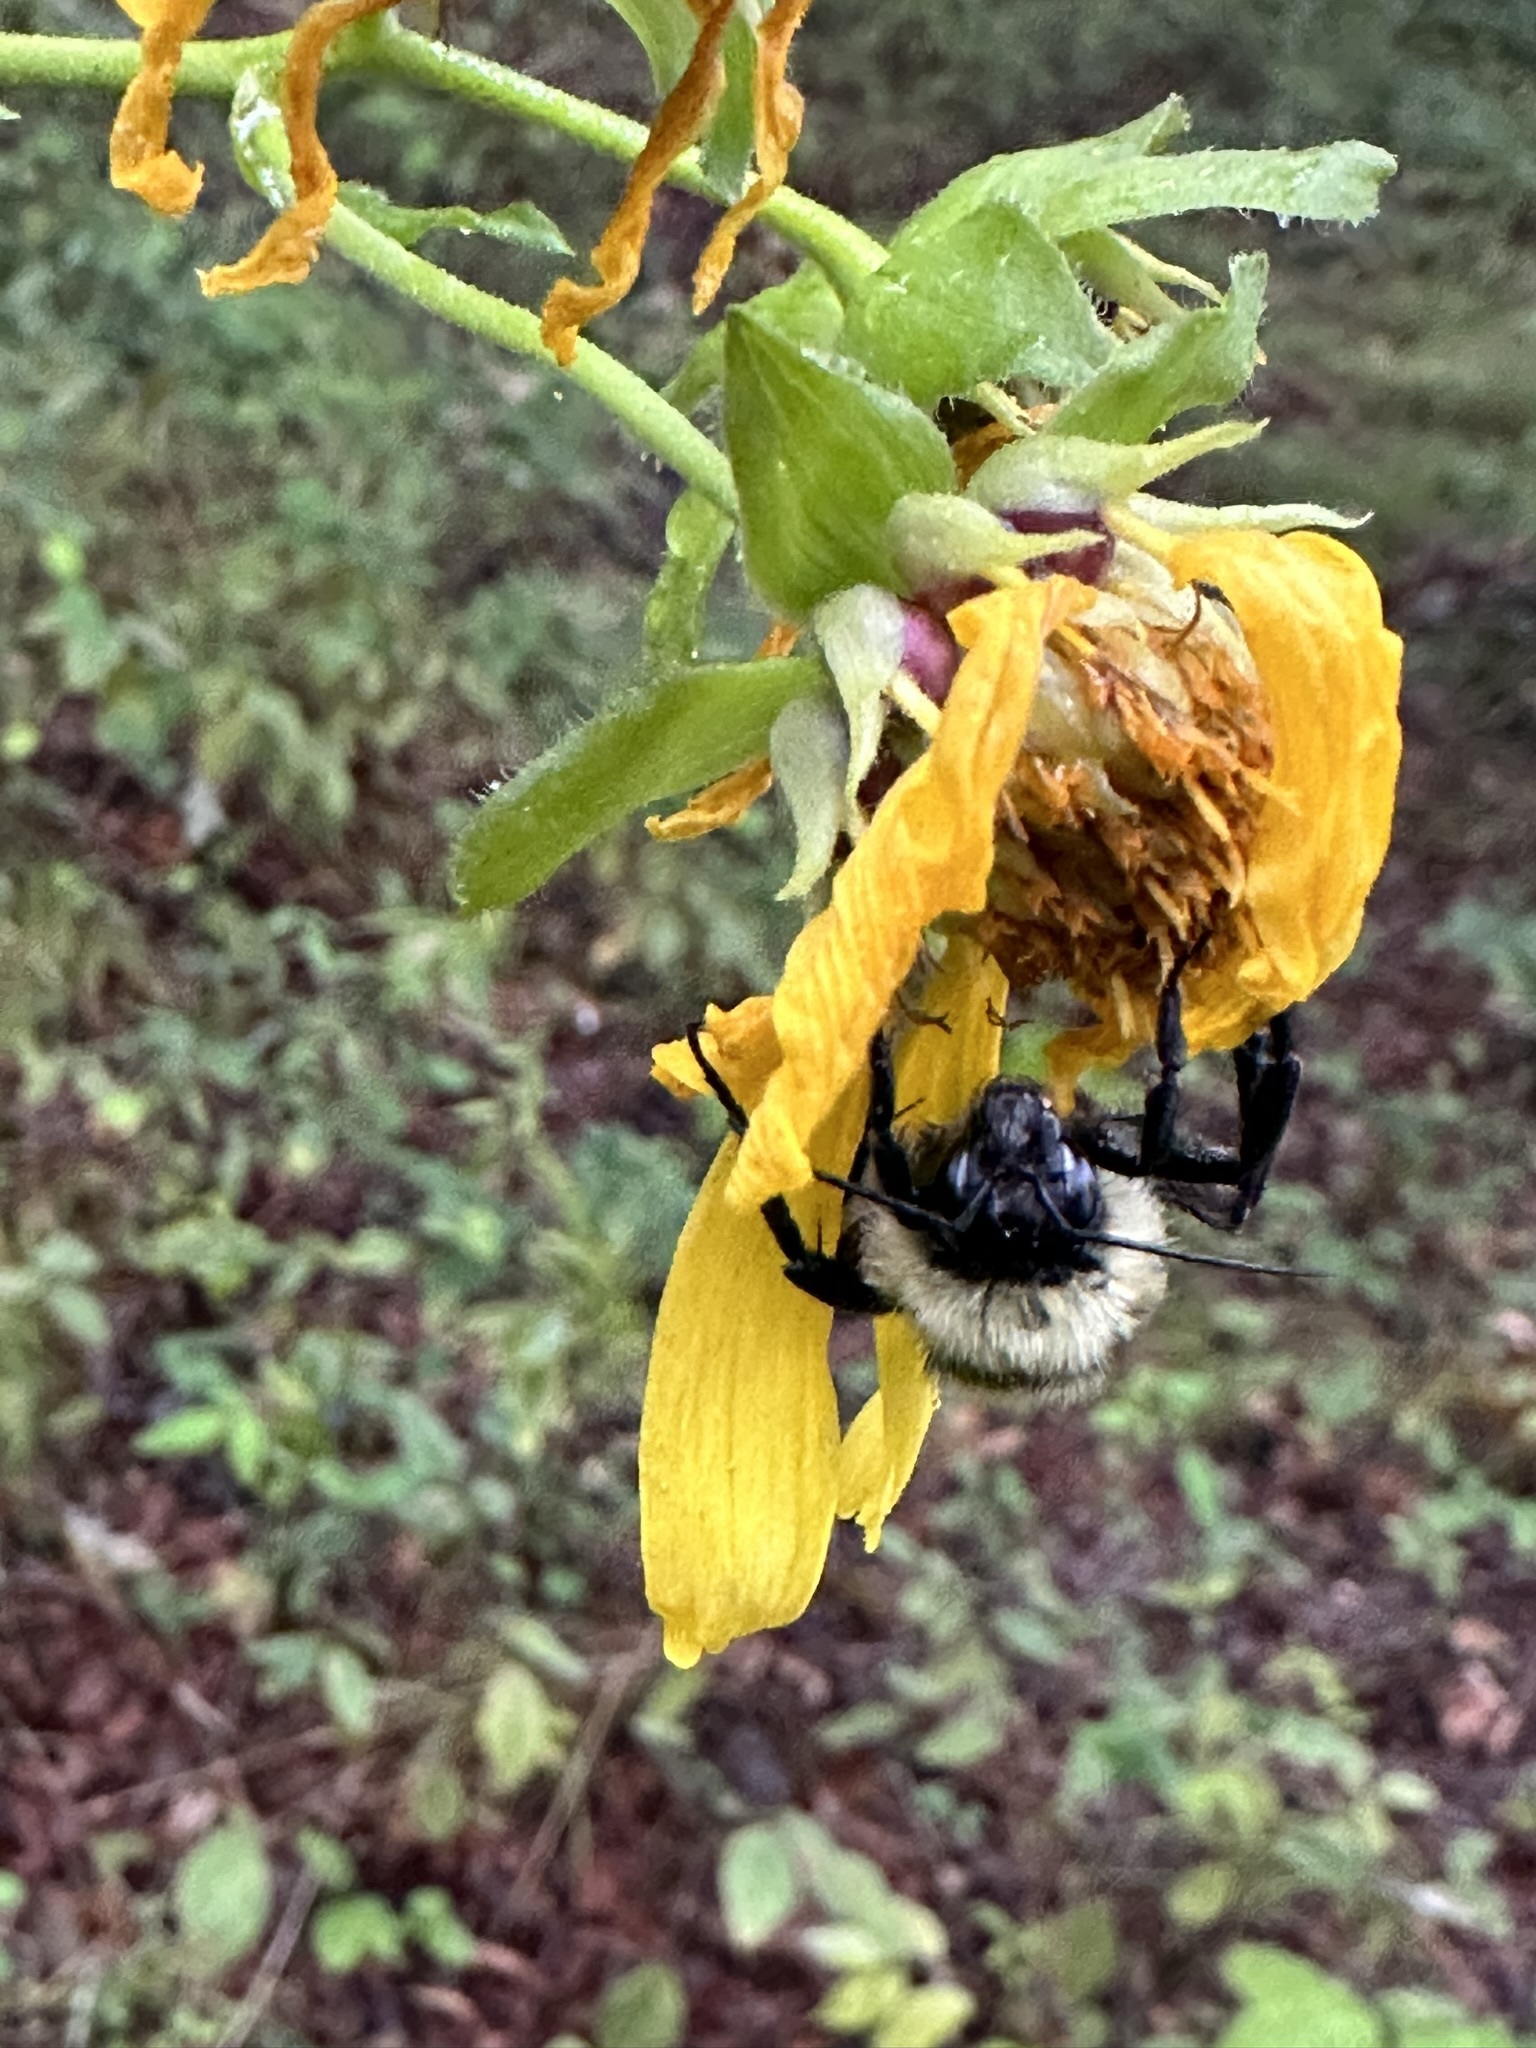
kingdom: Animalia
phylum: Arthropoda
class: Insecta
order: Hymenoptera
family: Apidae
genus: Bombus
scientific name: Bombus pensylvanicus
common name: Bumble bee
